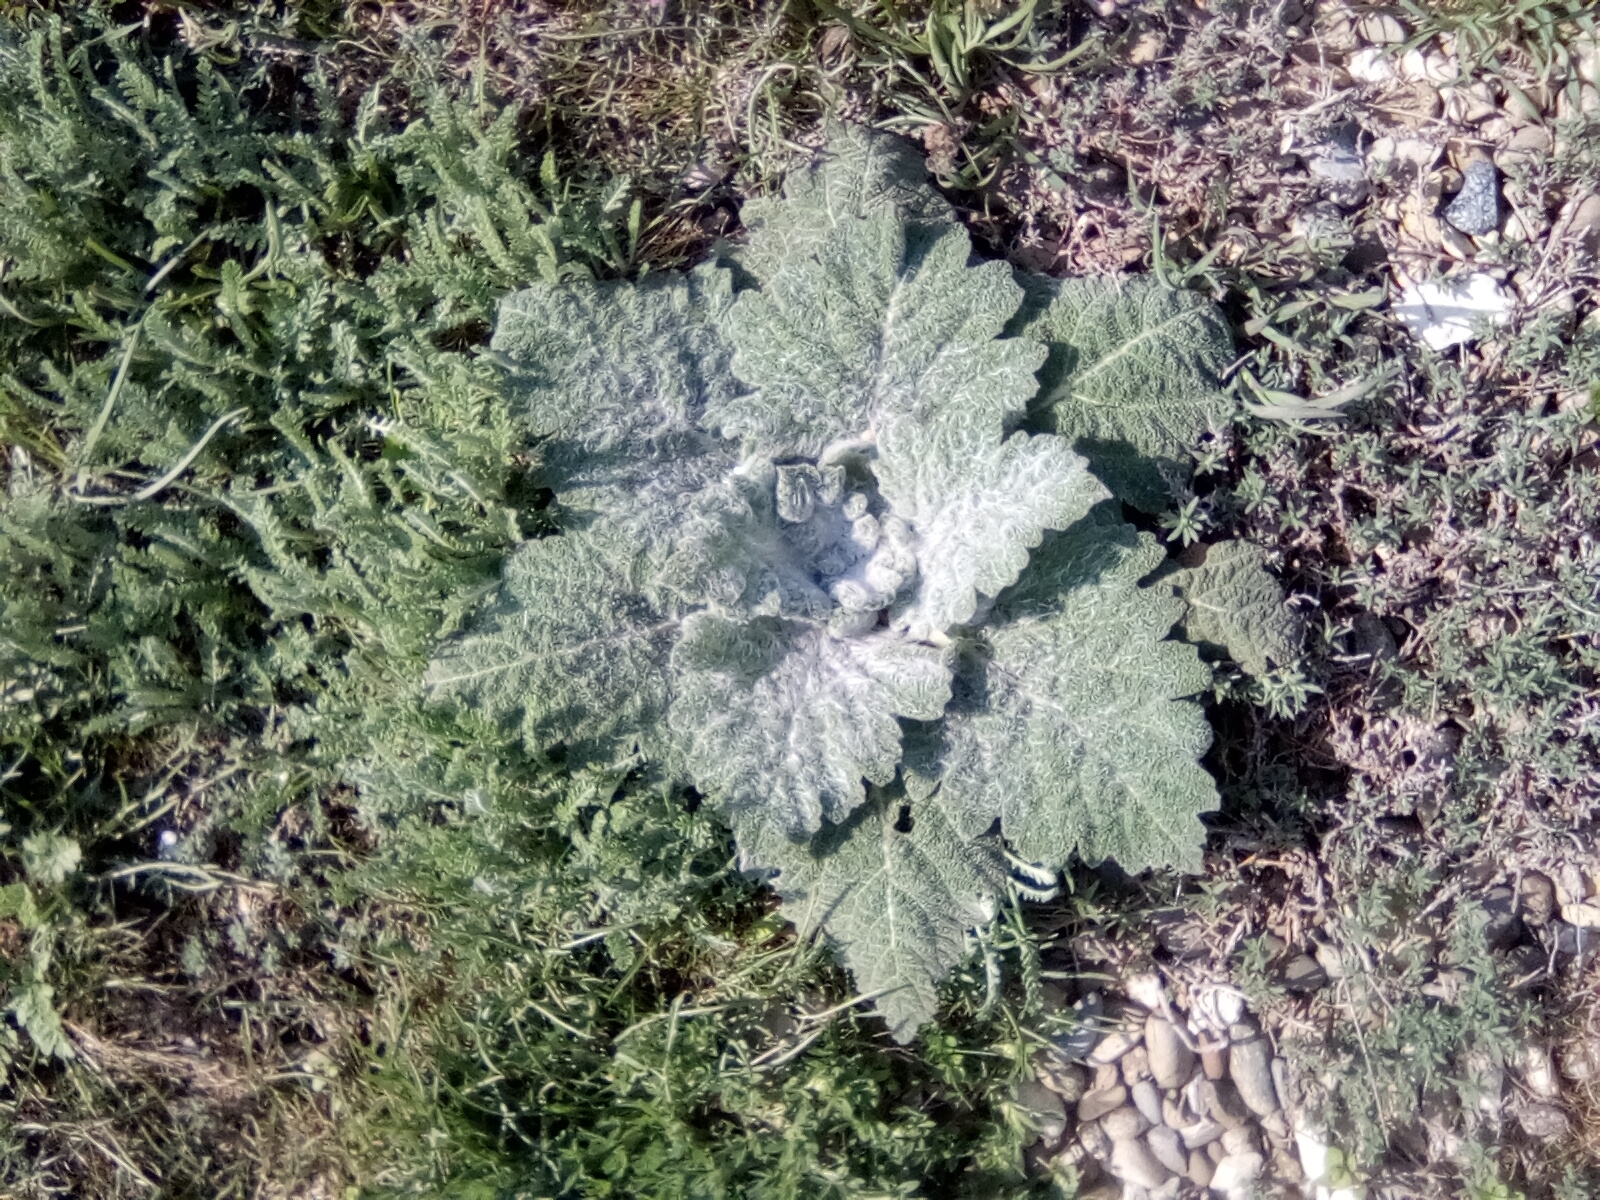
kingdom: Plantae
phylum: Tracheophyta
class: Magnoliopsida
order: Lamiales
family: Lamiaceae
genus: Salvia
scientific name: Salvia aethiopis
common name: Mediterranean sage
